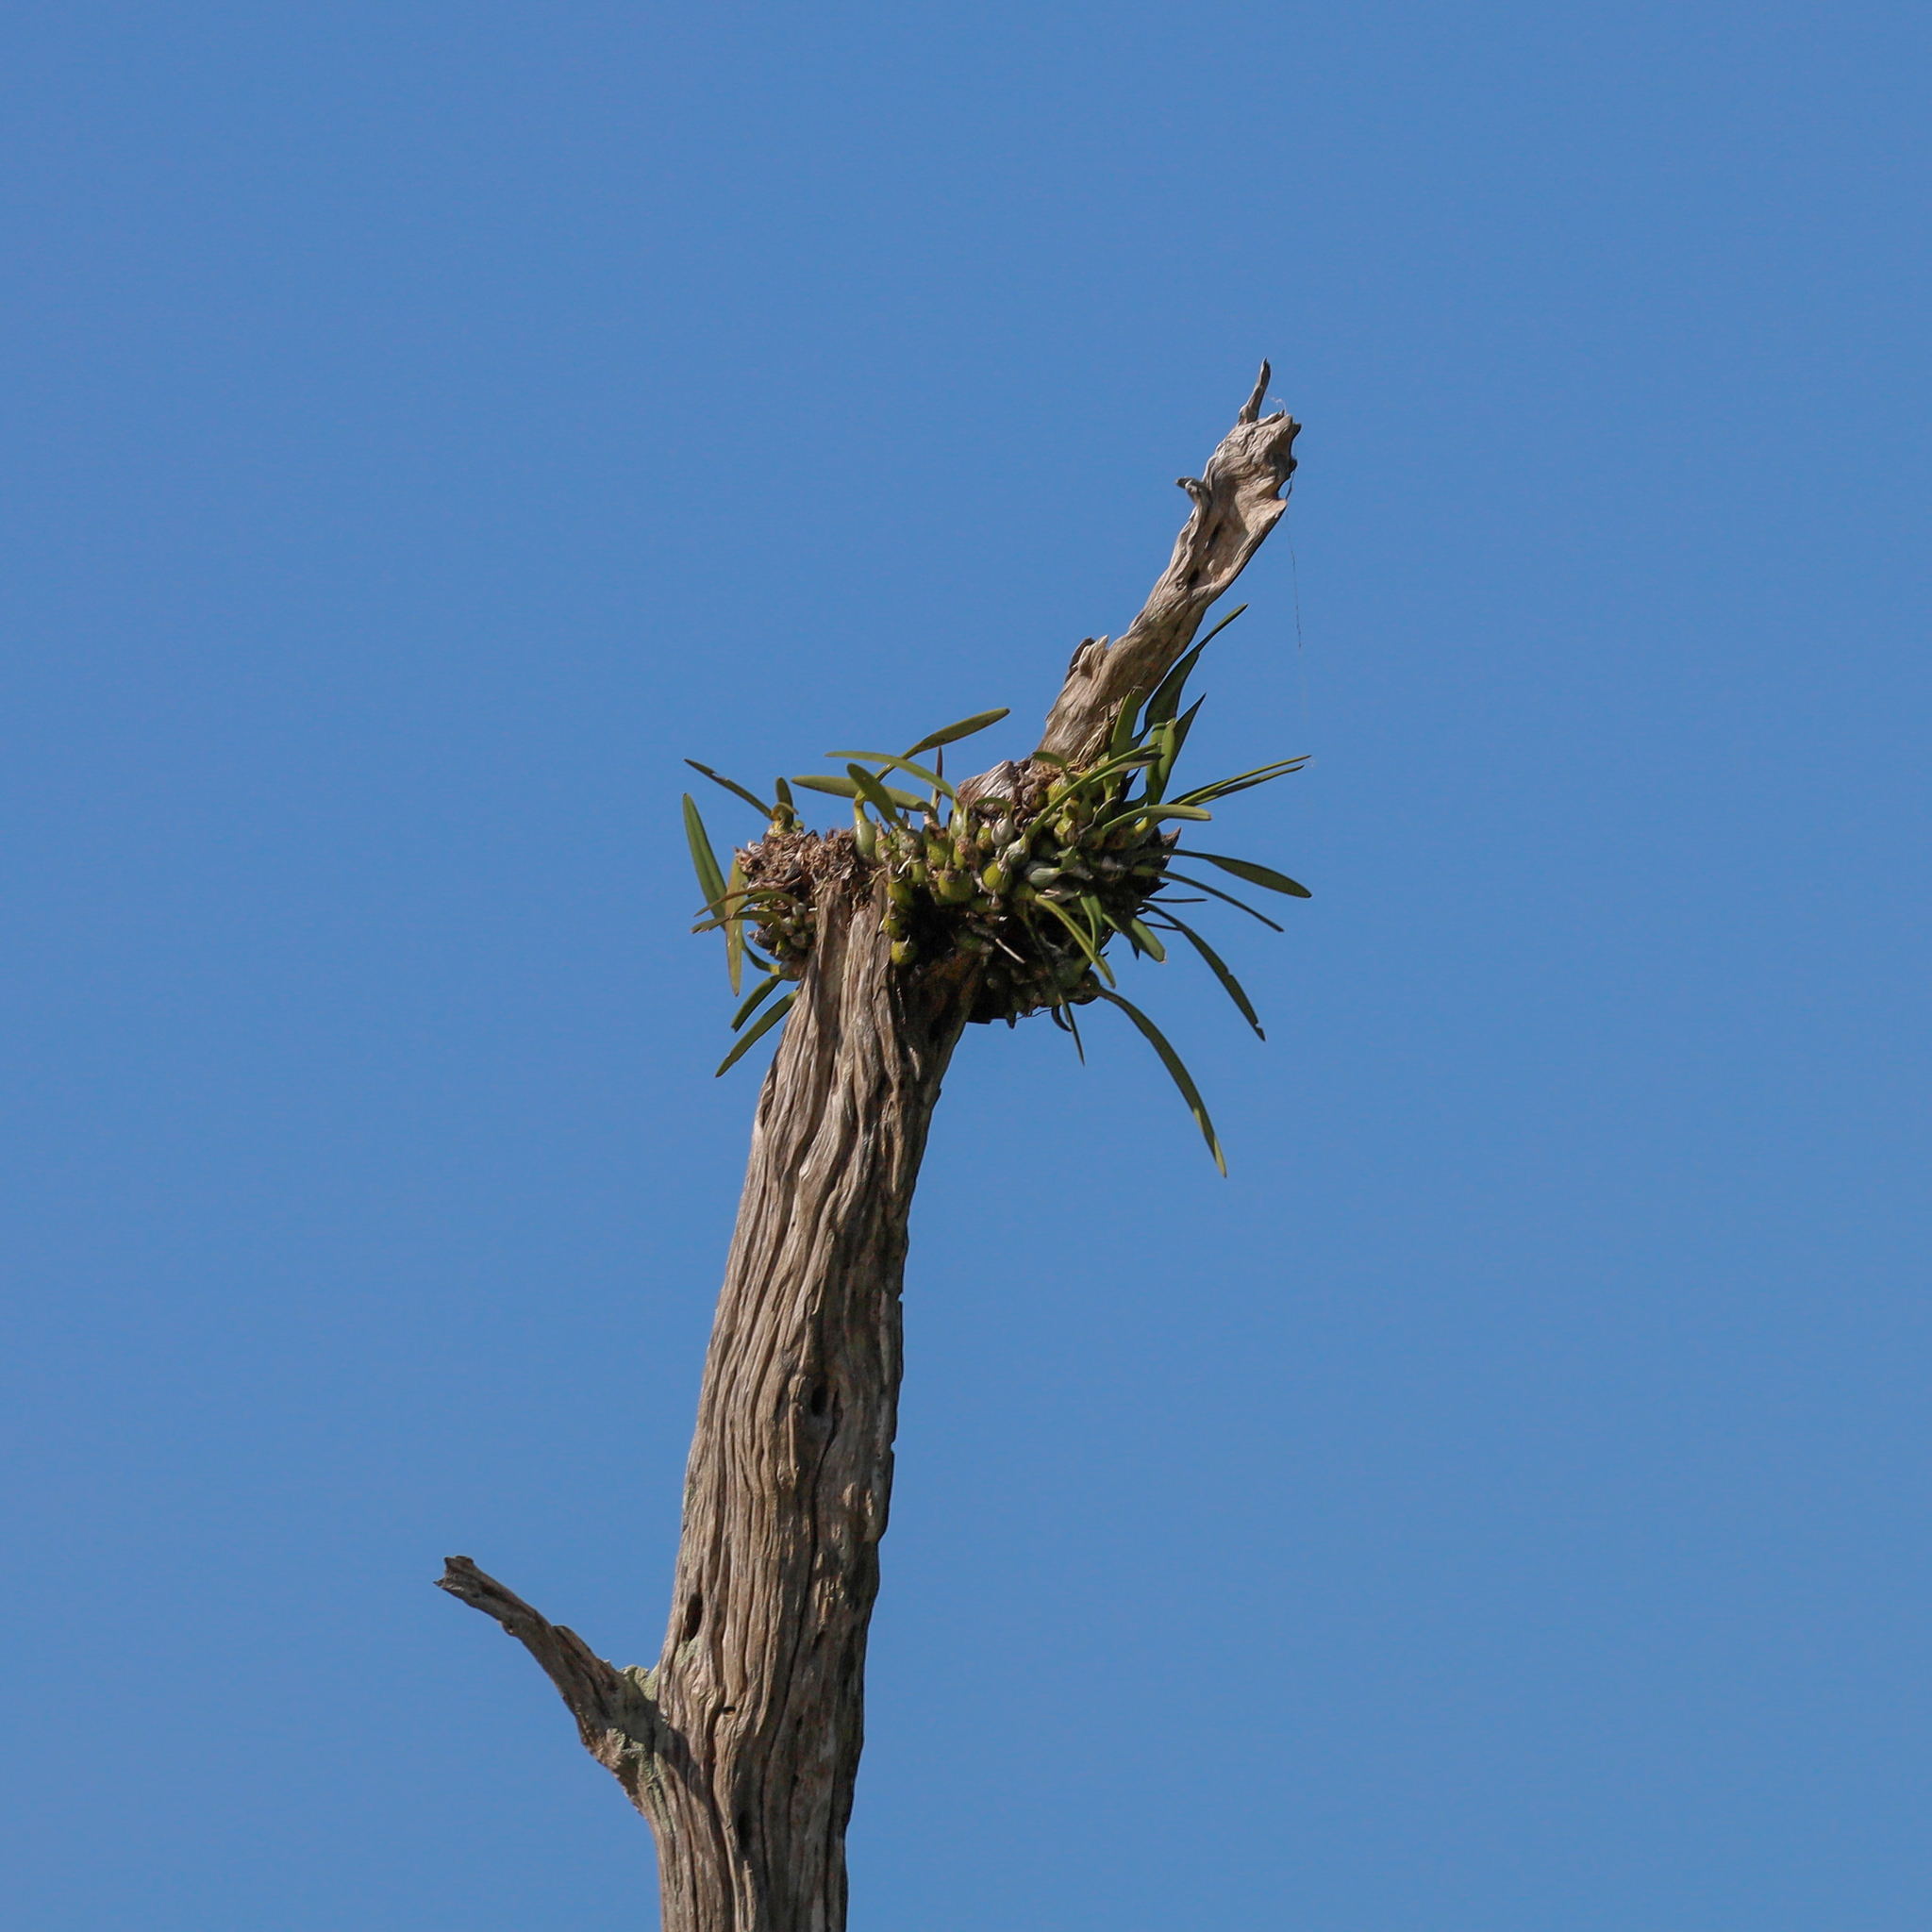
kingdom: Plantae
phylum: Tracheophyta
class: Liliopsida
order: Asparagales
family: Orchidaceae
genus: Encyclia
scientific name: Encyclia tampensis
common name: Florida butterfly orchid
